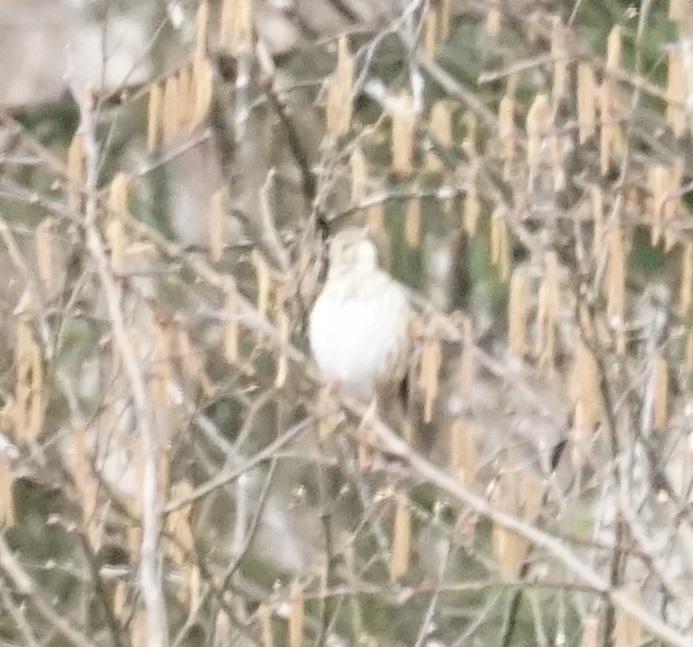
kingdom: Animalia
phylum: Chordata
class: Aves
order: Passeriformes
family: Turdidae
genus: Turdus
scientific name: Turdus philomelos
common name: Song thrush
